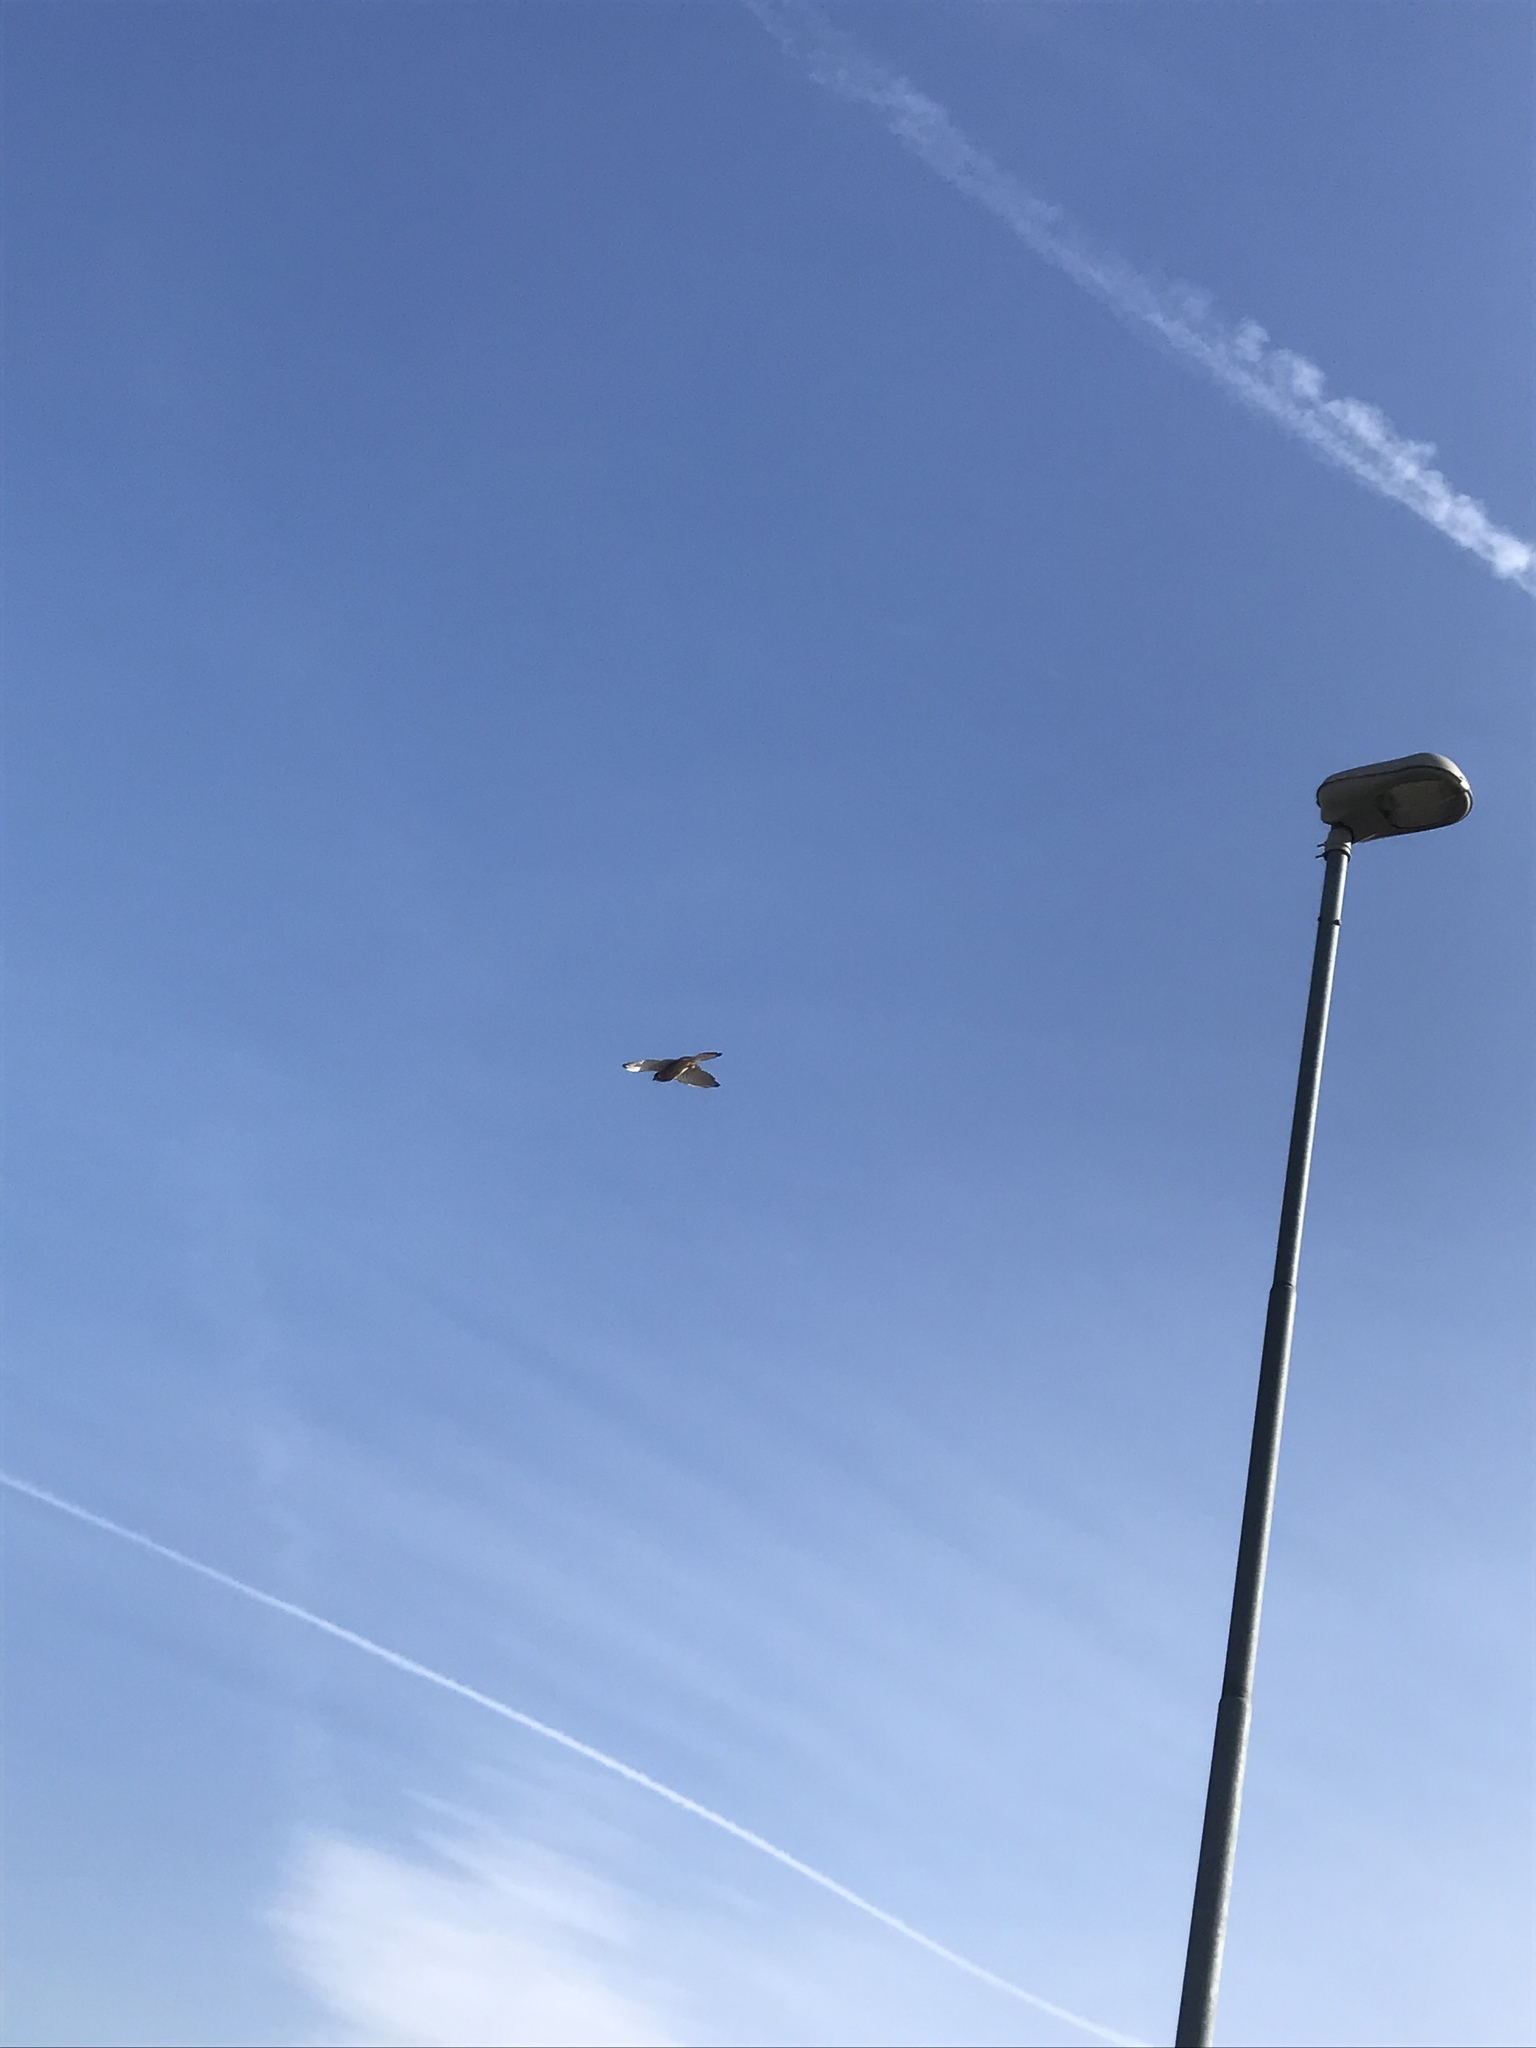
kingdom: Animalia
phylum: Chordata
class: Aves
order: Falconiformes
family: Falconidae
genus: Falco
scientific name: Falco tinnunculus
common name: Common kestrel
